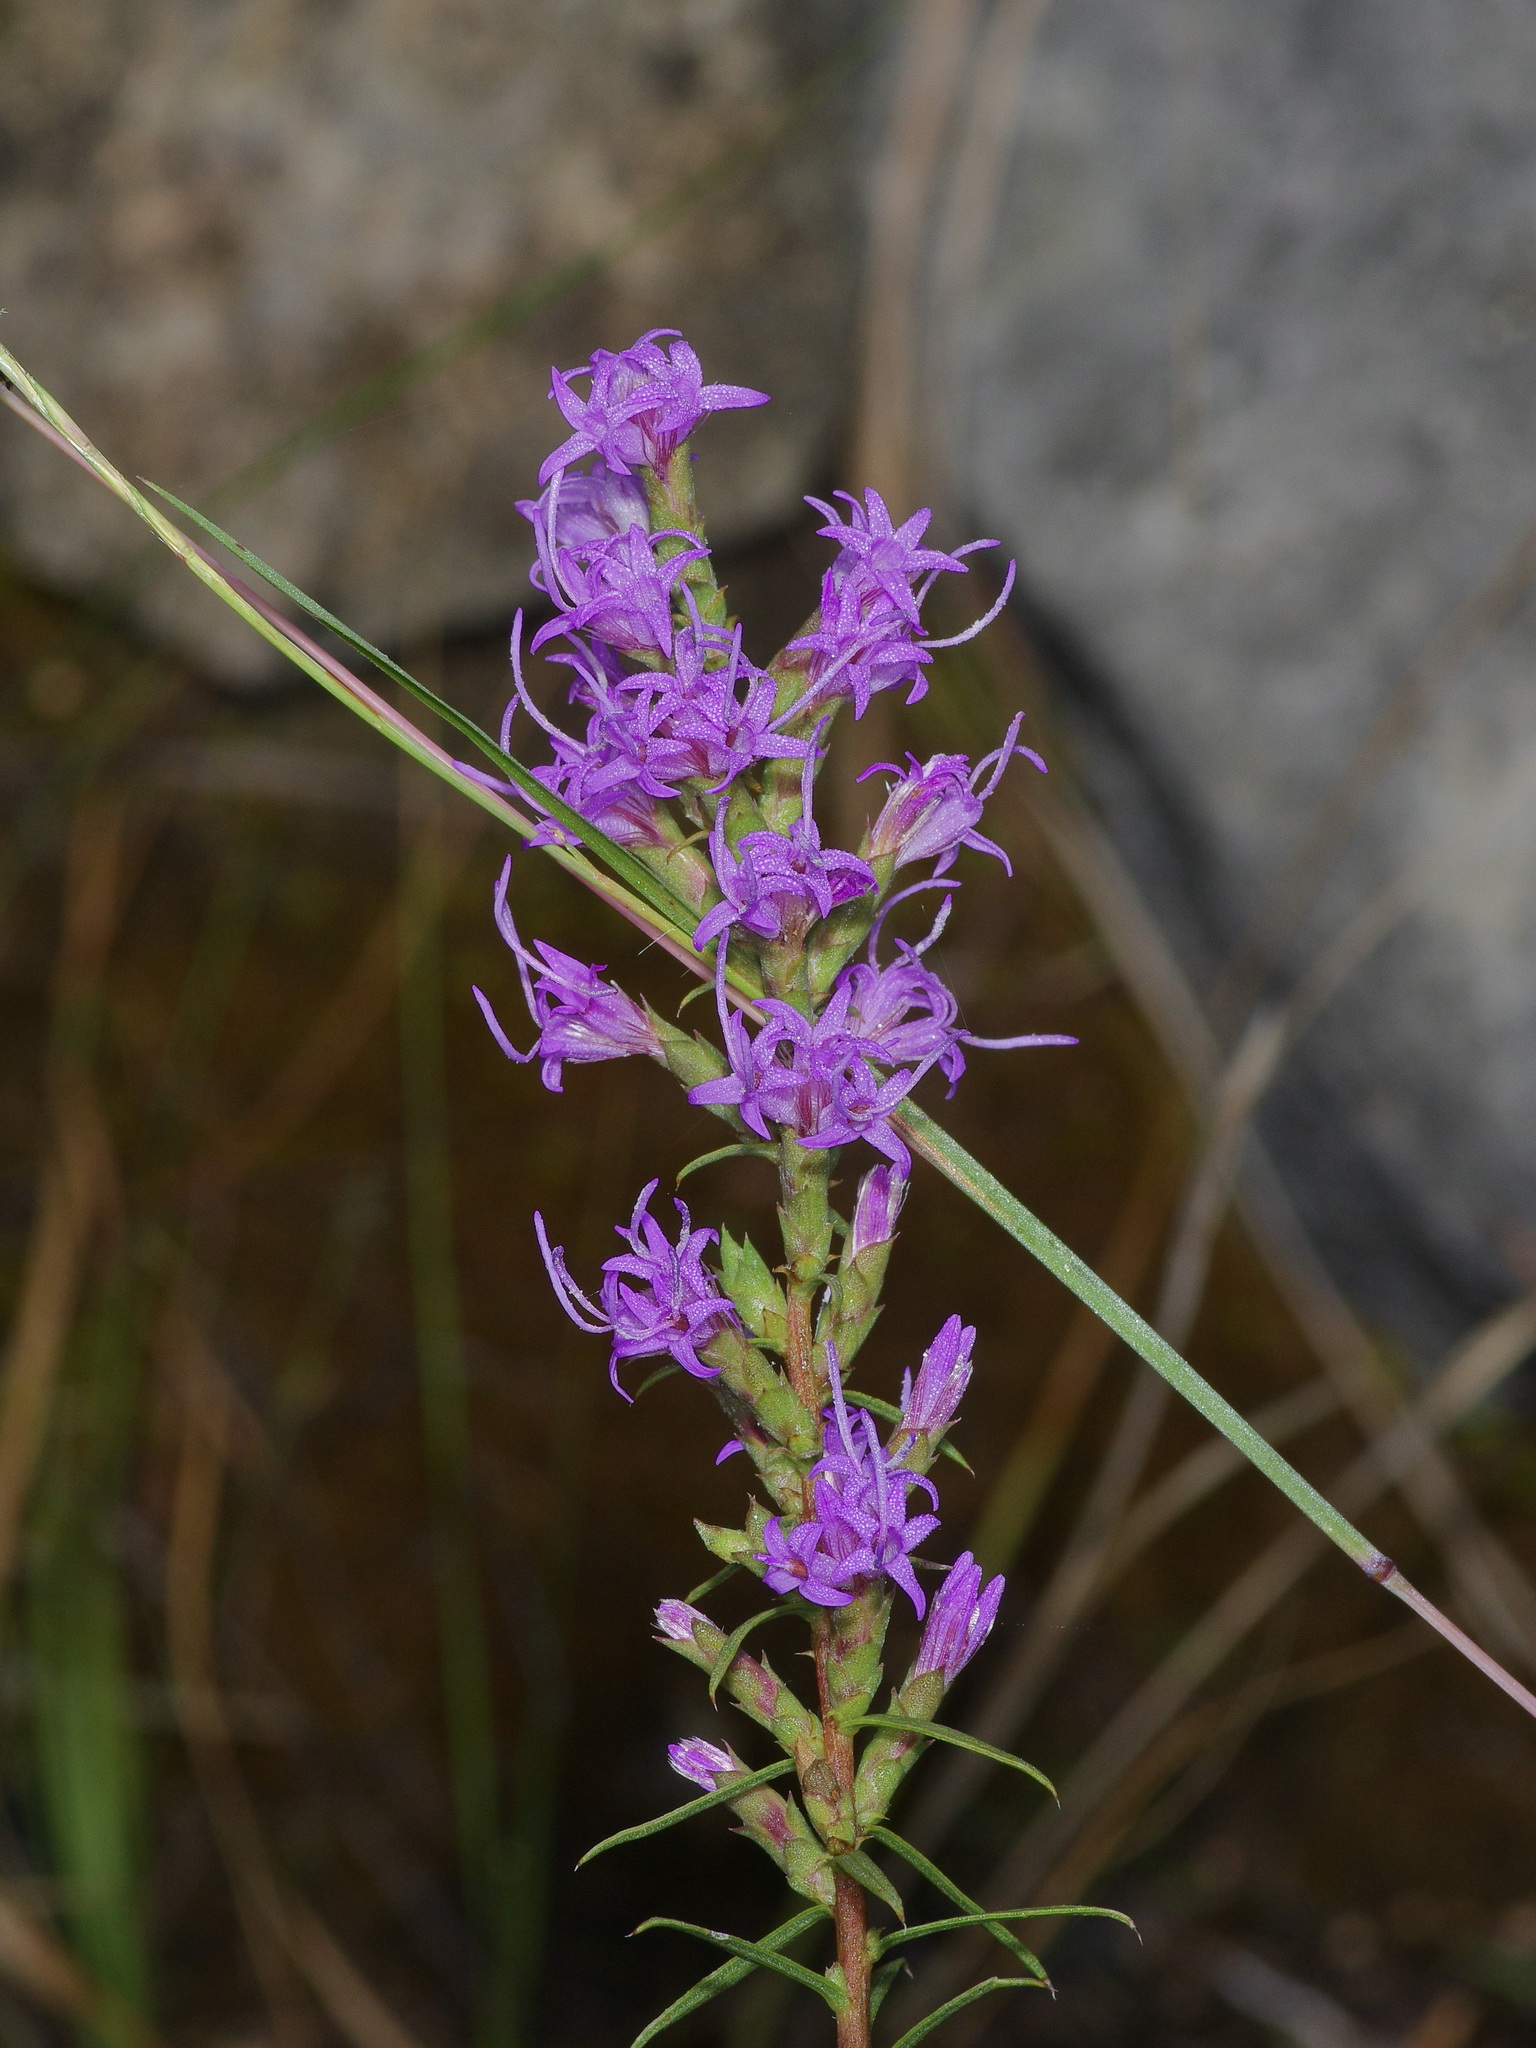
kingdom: Plantae
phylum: Tracheophyta
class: Magnoliopsida
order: Asterales
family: Asteraceae
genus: Liatris
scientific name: Liatris punctata
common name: Dotted gayfeather
